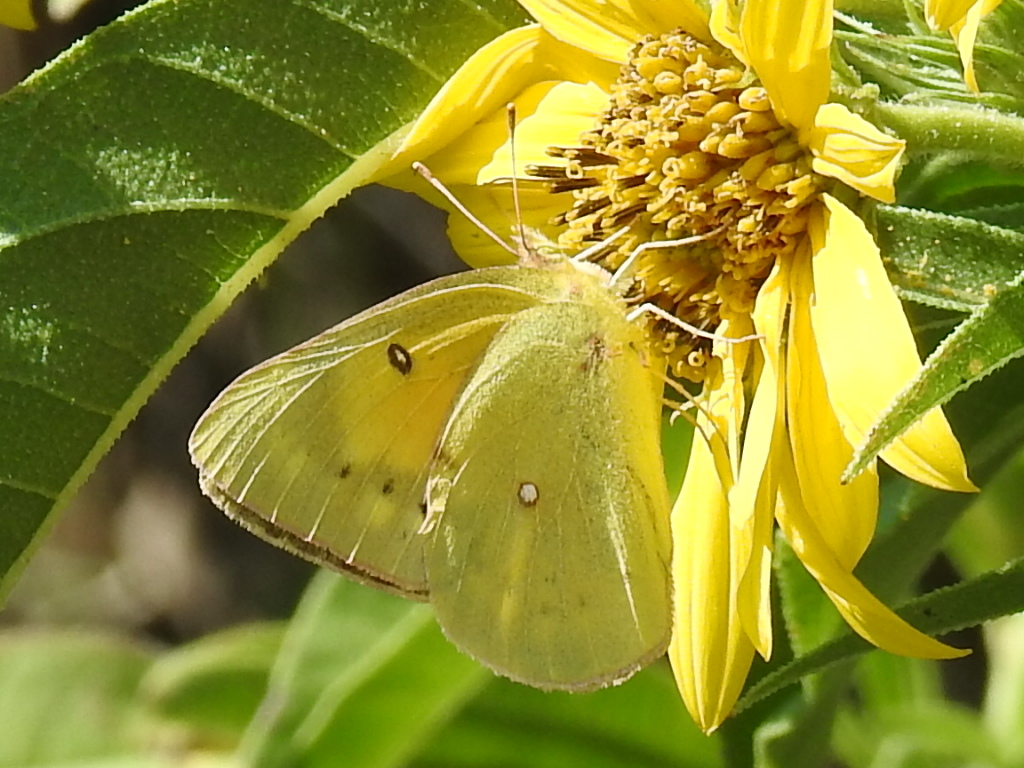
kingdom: Animalia
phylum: Arthropoda
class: Insecta
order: Lepidoptera
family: Pieridae
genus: Colias
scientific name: Colias eurytheme
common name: Alfalfa butterfly
